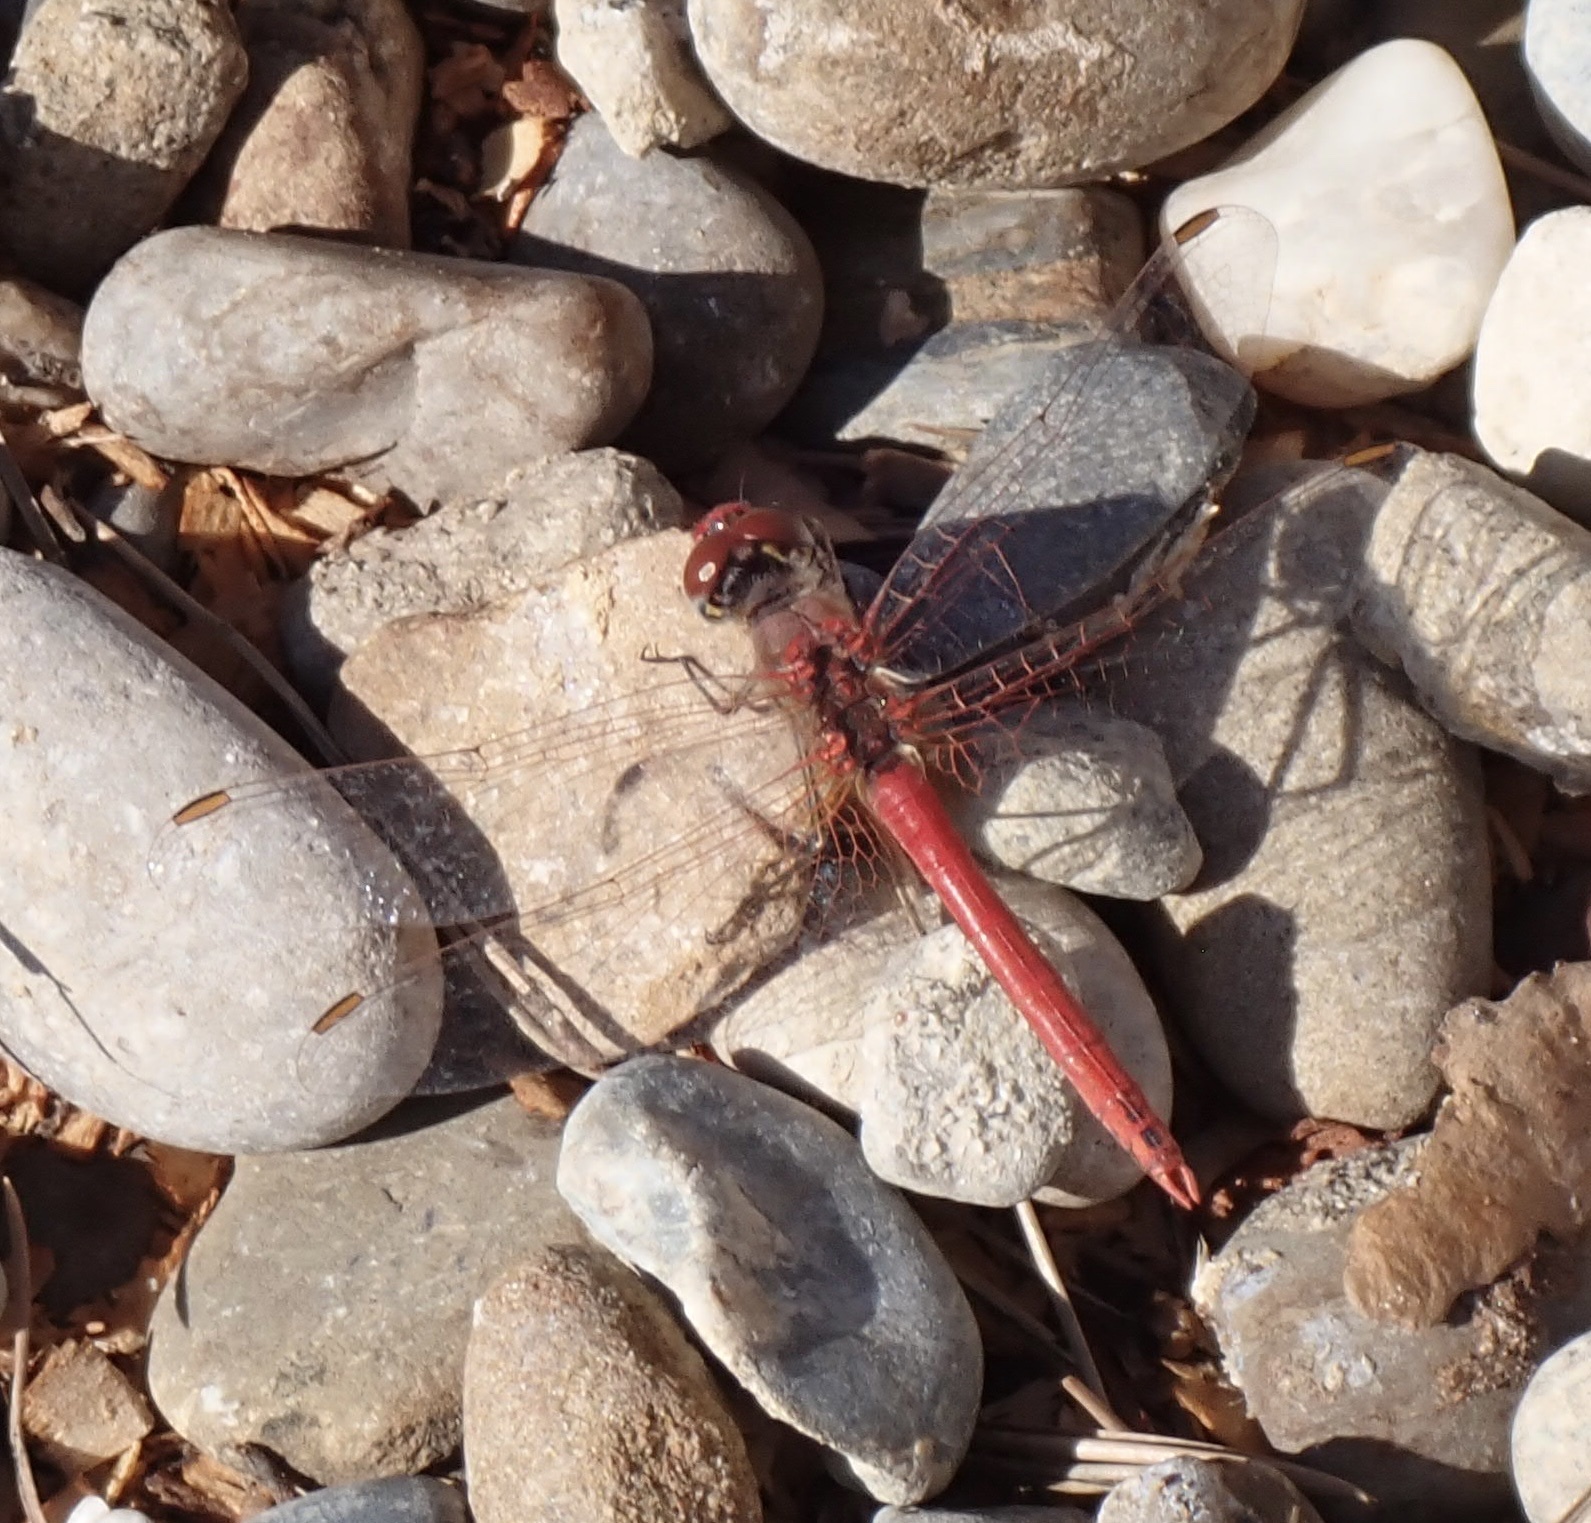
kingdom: Animalia
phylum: Arthropoda
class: Insecta
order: Odonata
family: Libellulidae
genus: Sympetrum
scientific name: Sympetrum fonscolombii
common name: Red-veined darter
